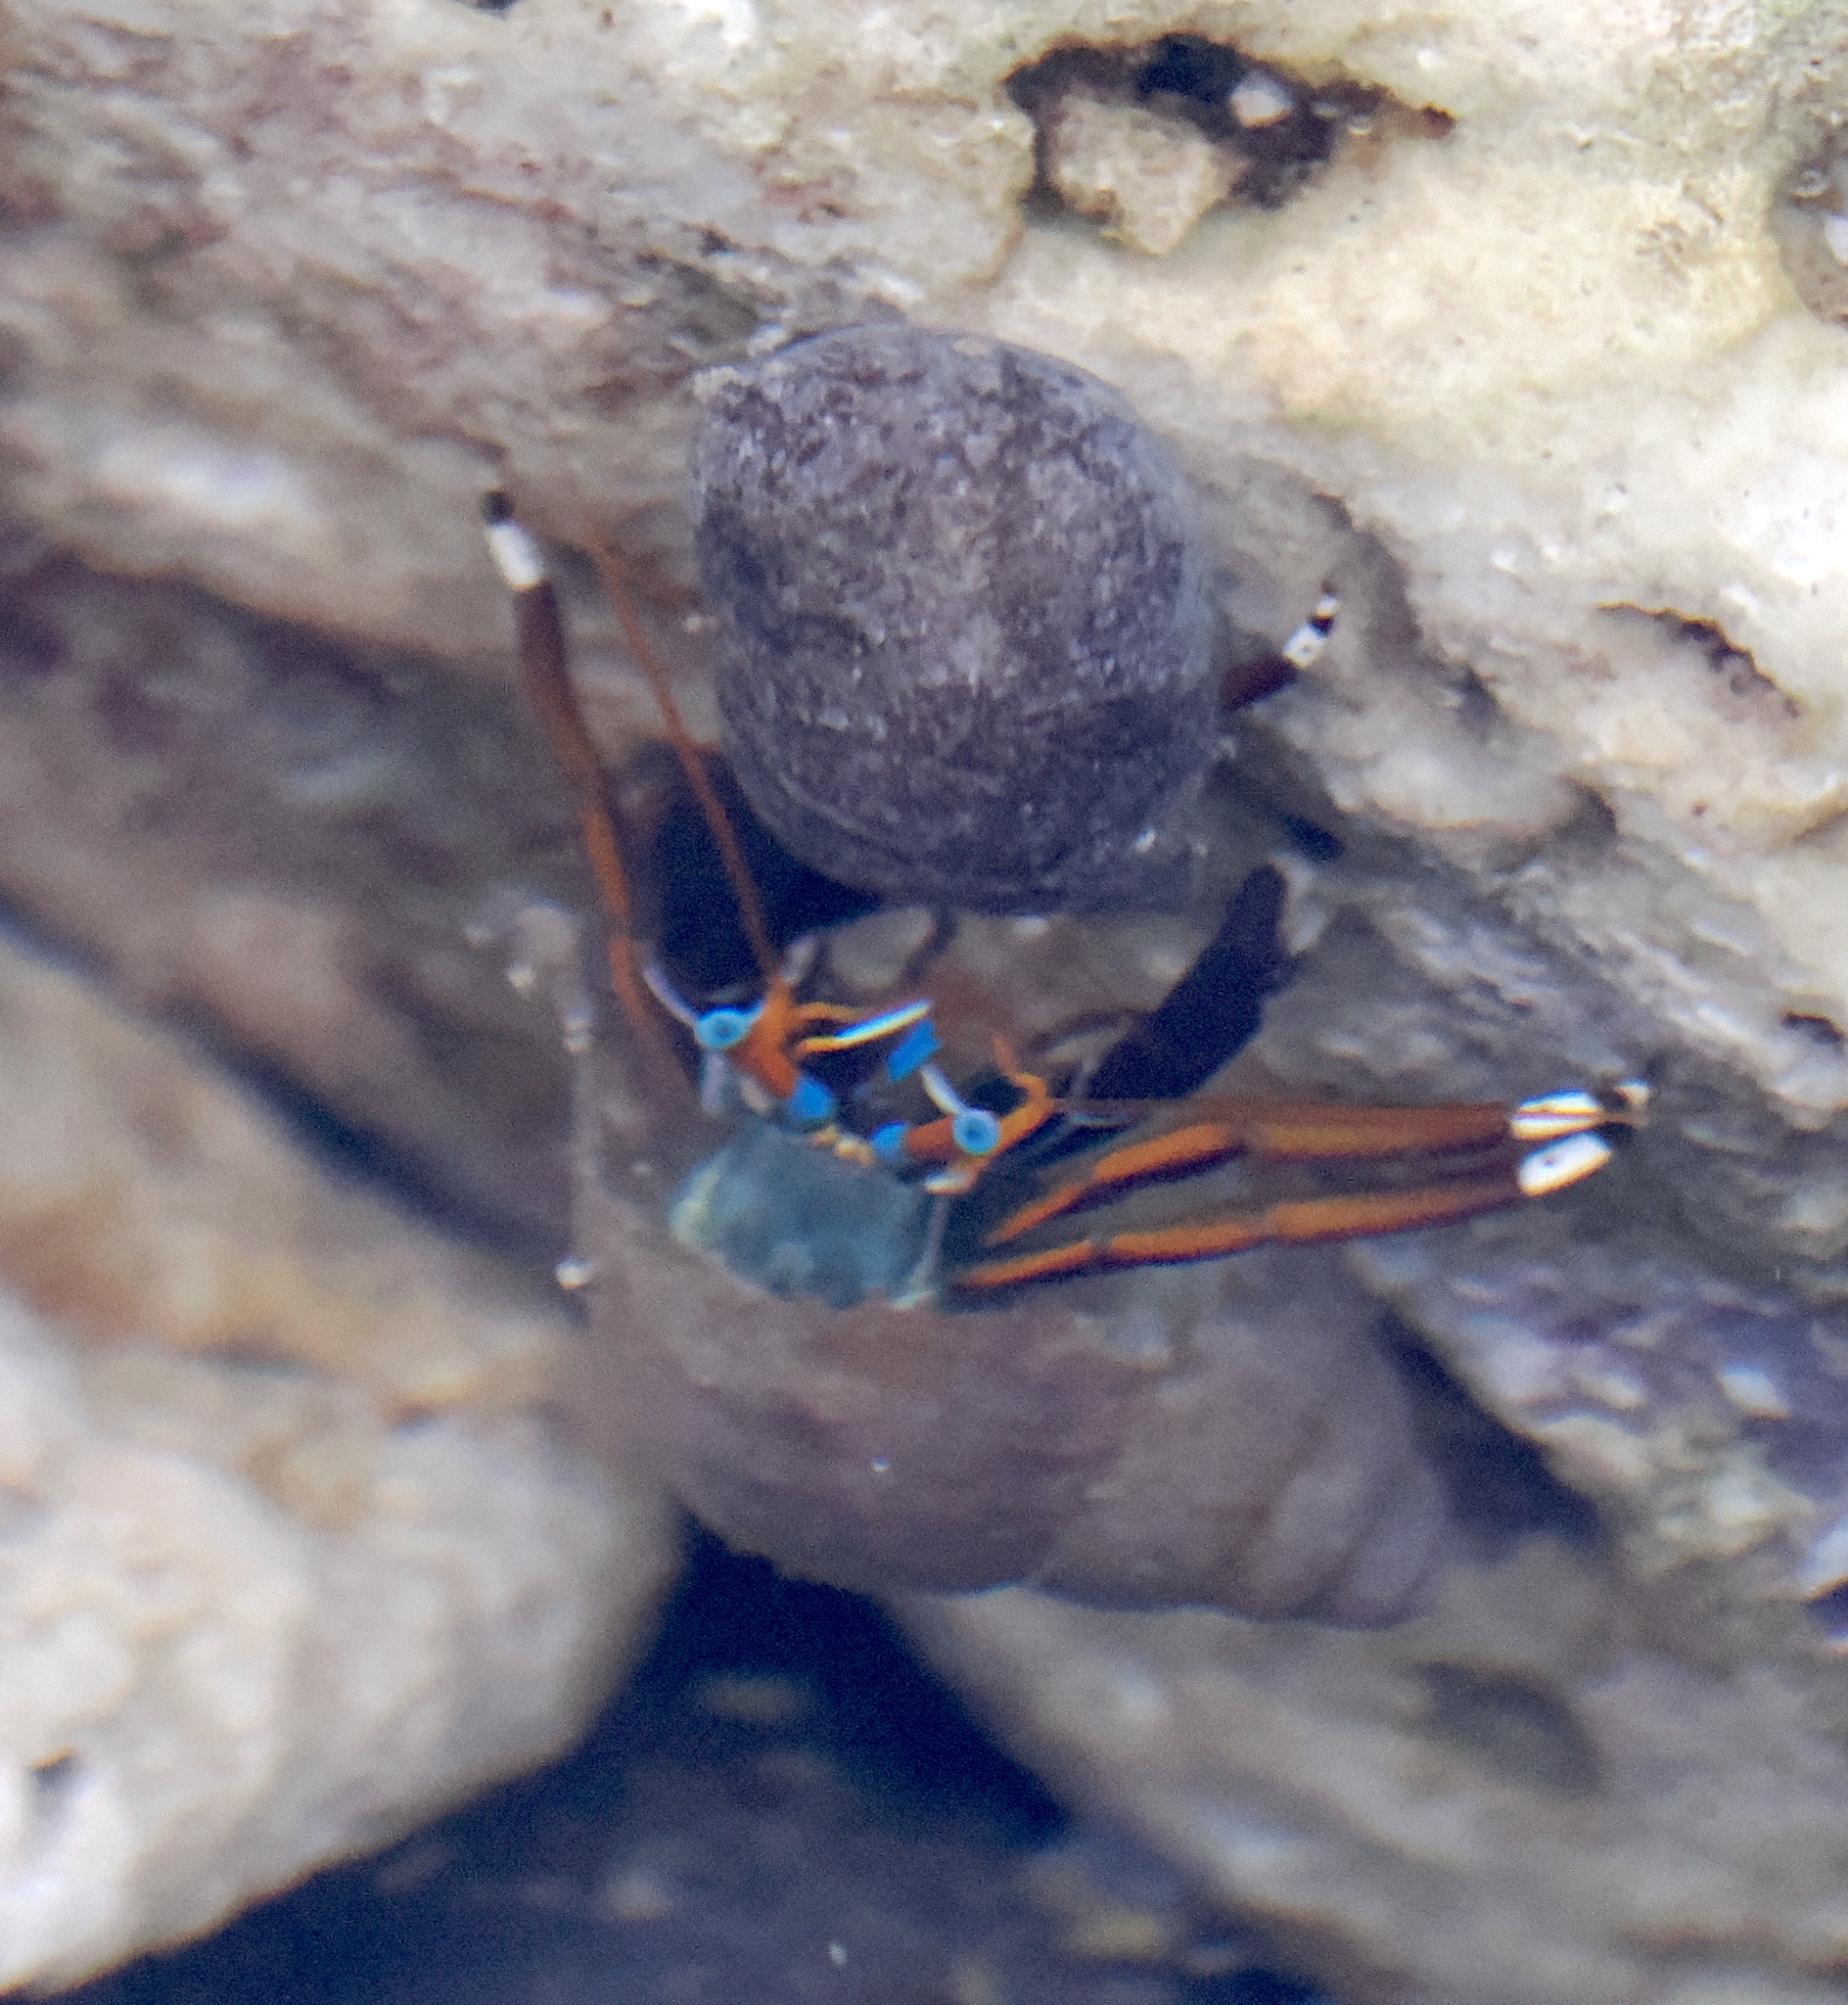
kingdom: Animalia
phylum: Arthropoda
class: Malacostraca
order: Decapoda
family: Diogenidae
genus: Calcinus
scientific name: Calcinus laevimanus
